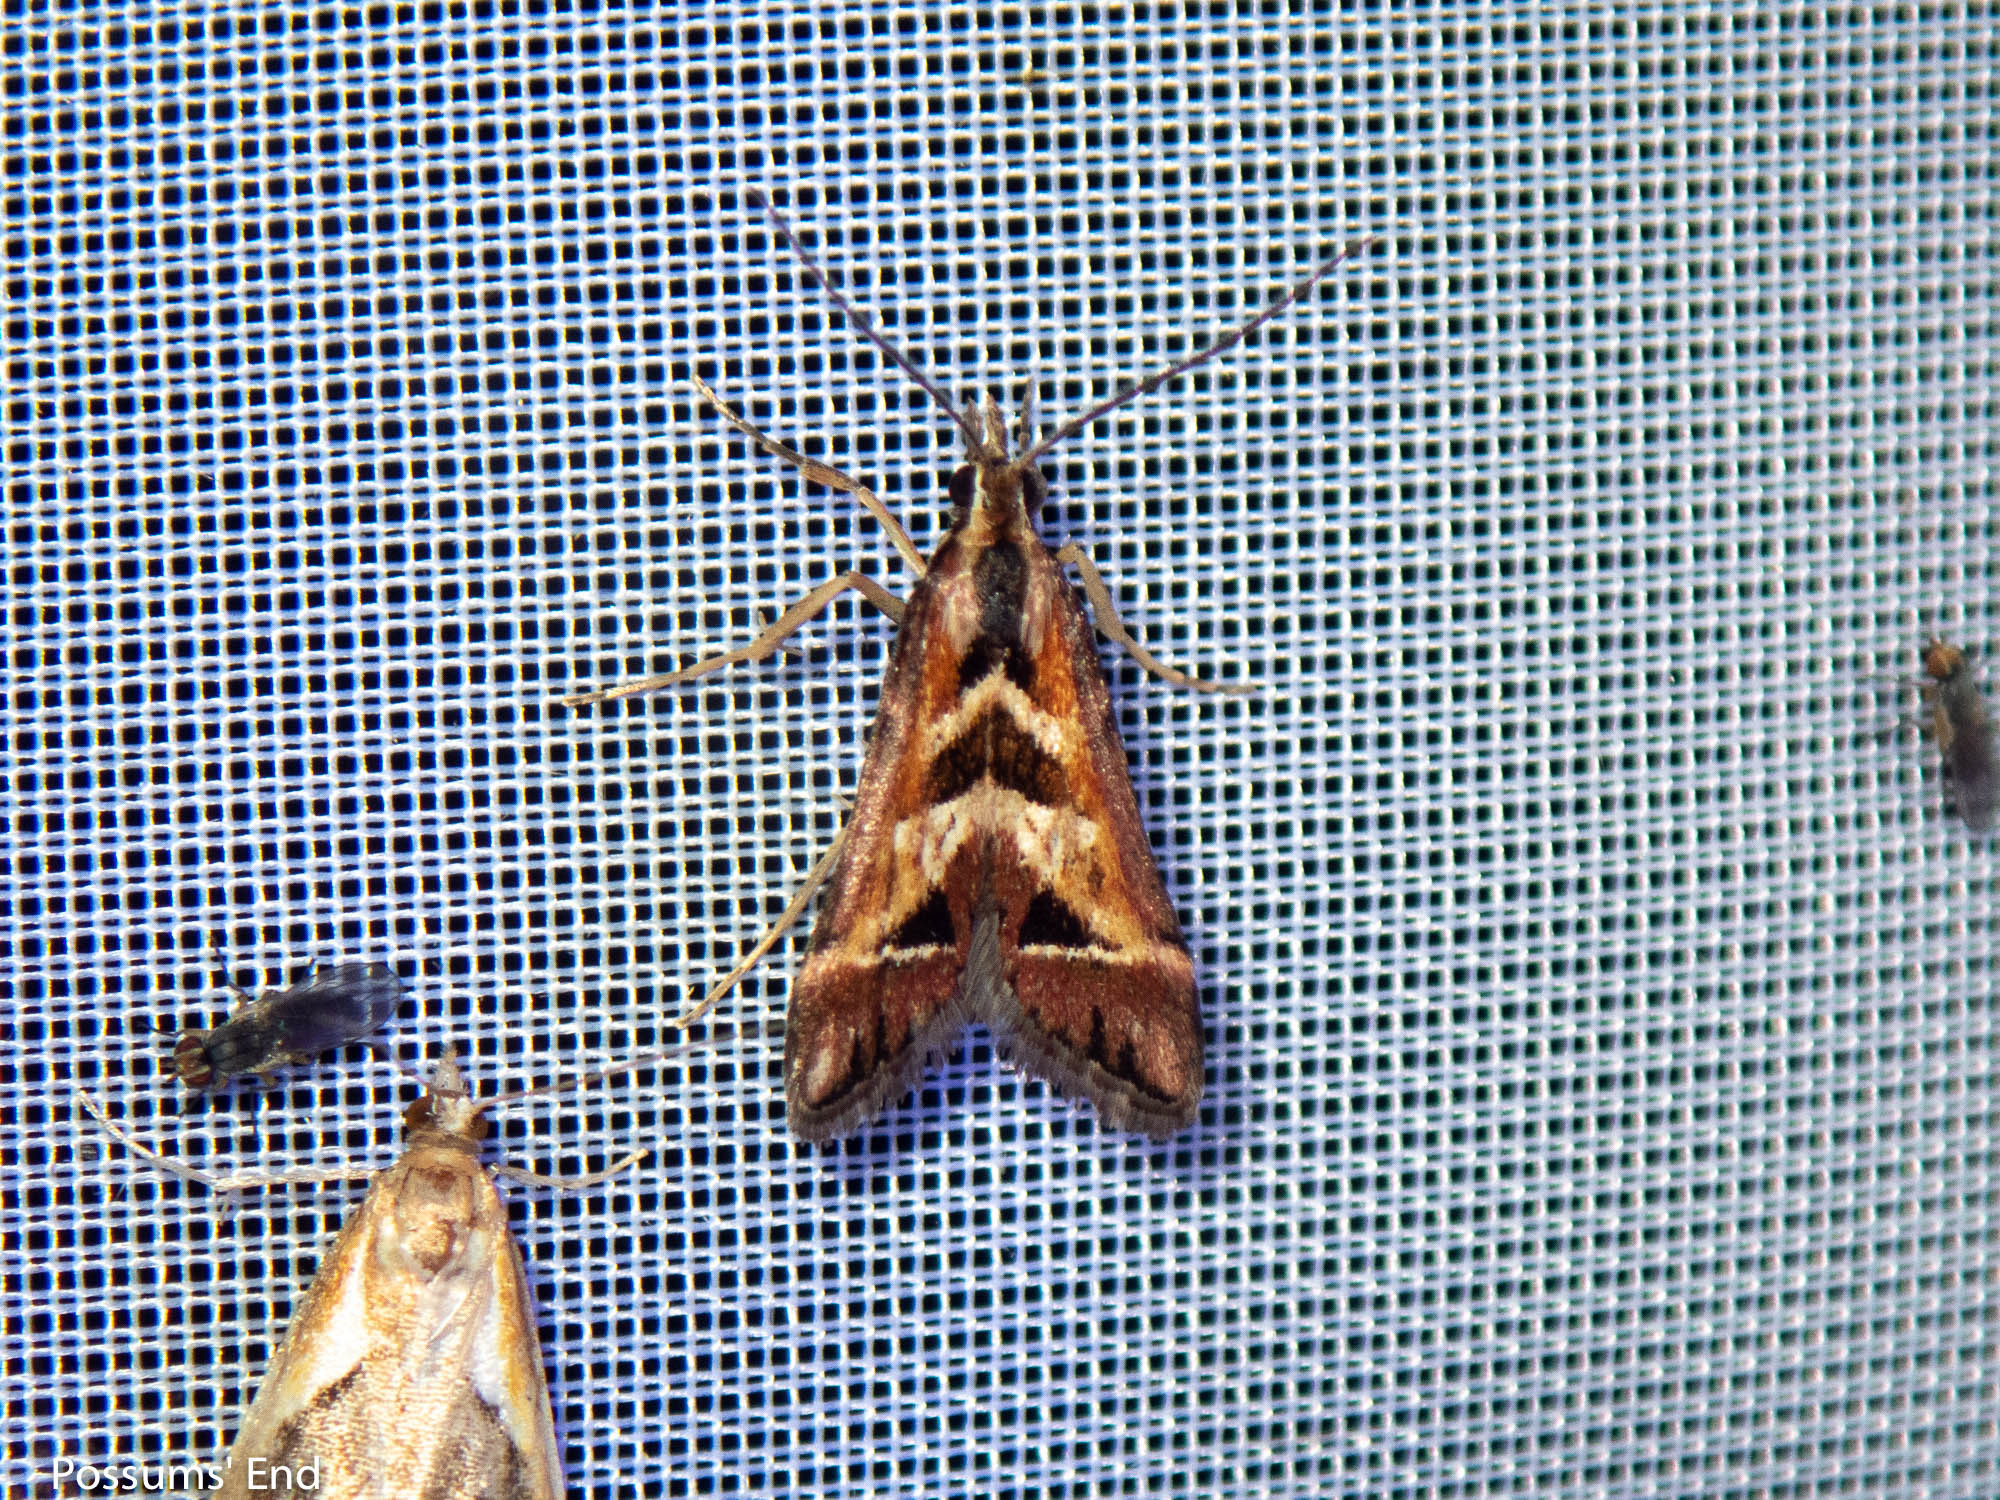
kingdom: Animalia
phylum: Arthropoda
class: Insecta
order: Lepidoptera
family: Crambidae
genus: Diasemia
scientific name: Diasemia grammalis
